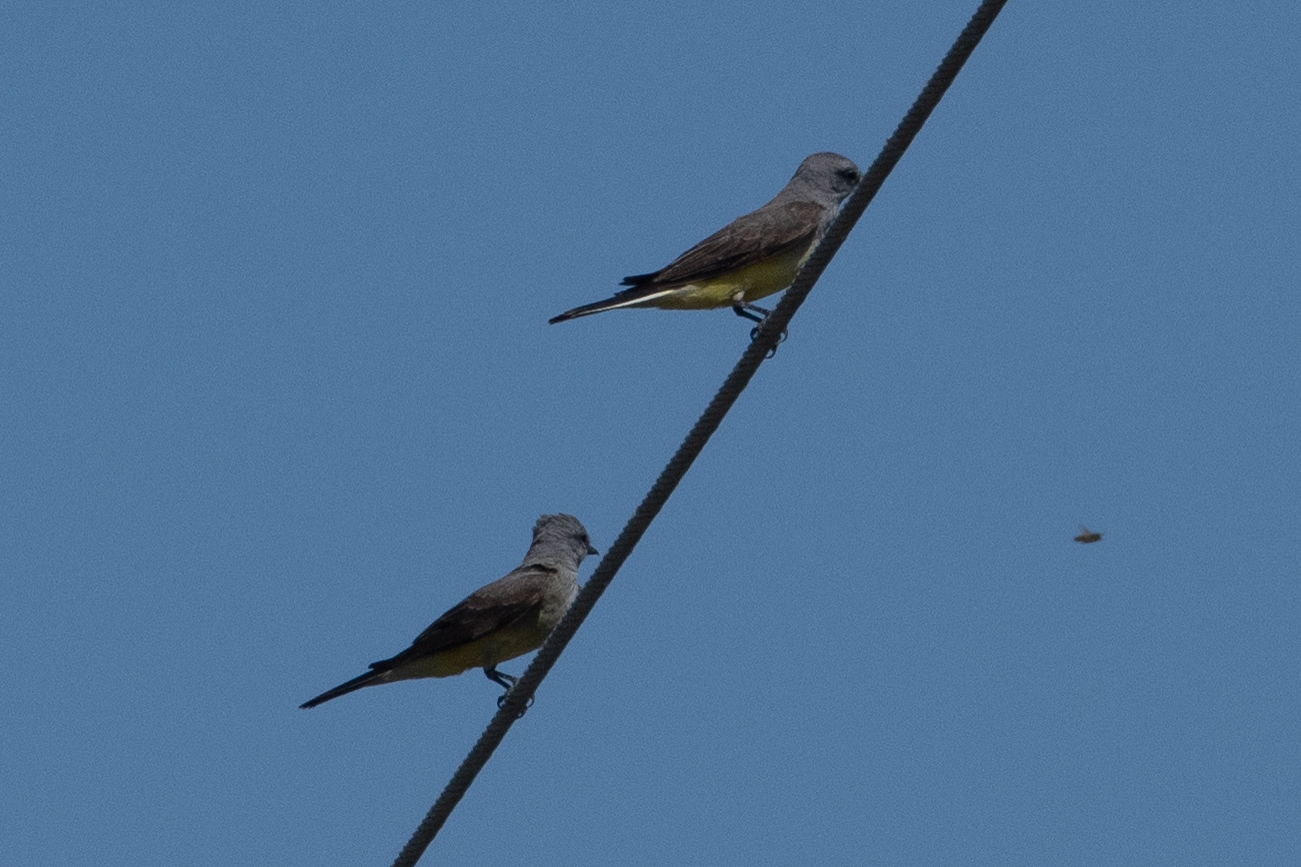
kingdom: Animalia
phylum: Chordata
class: Aves
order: Passeriformes
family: Tyrannidae
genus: Tyrannus
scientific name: Tyrannus verticalis
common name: Western kingbird
